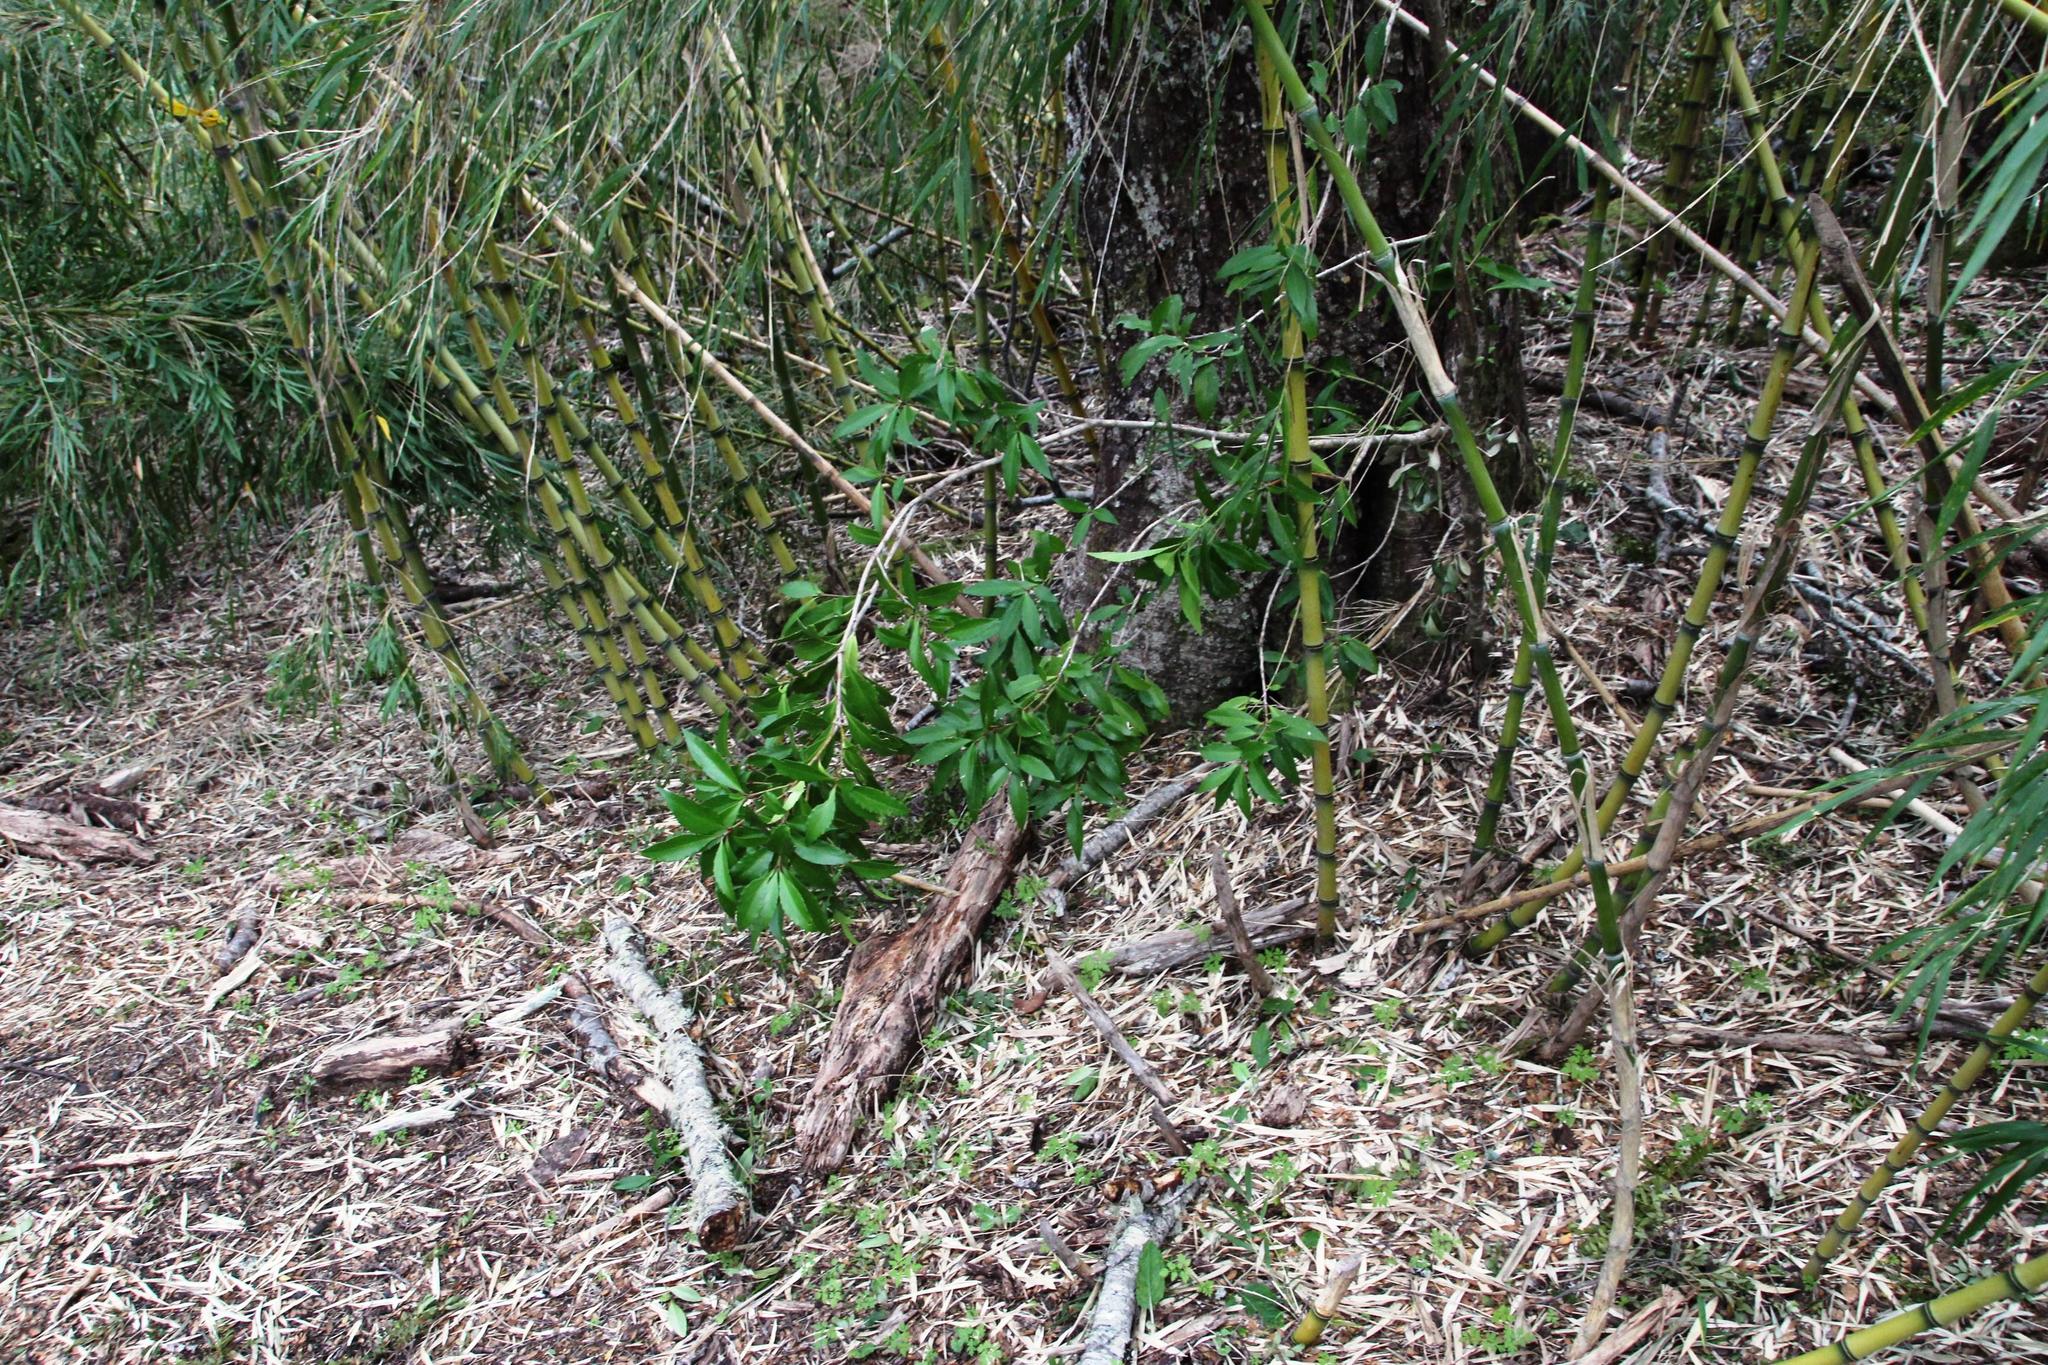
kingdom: Plantae
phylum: Tracheophyta
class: Magnoliopsida
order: Celastrales
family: Celastraceae
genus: Maytenus
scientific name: Maytenus magellanica
